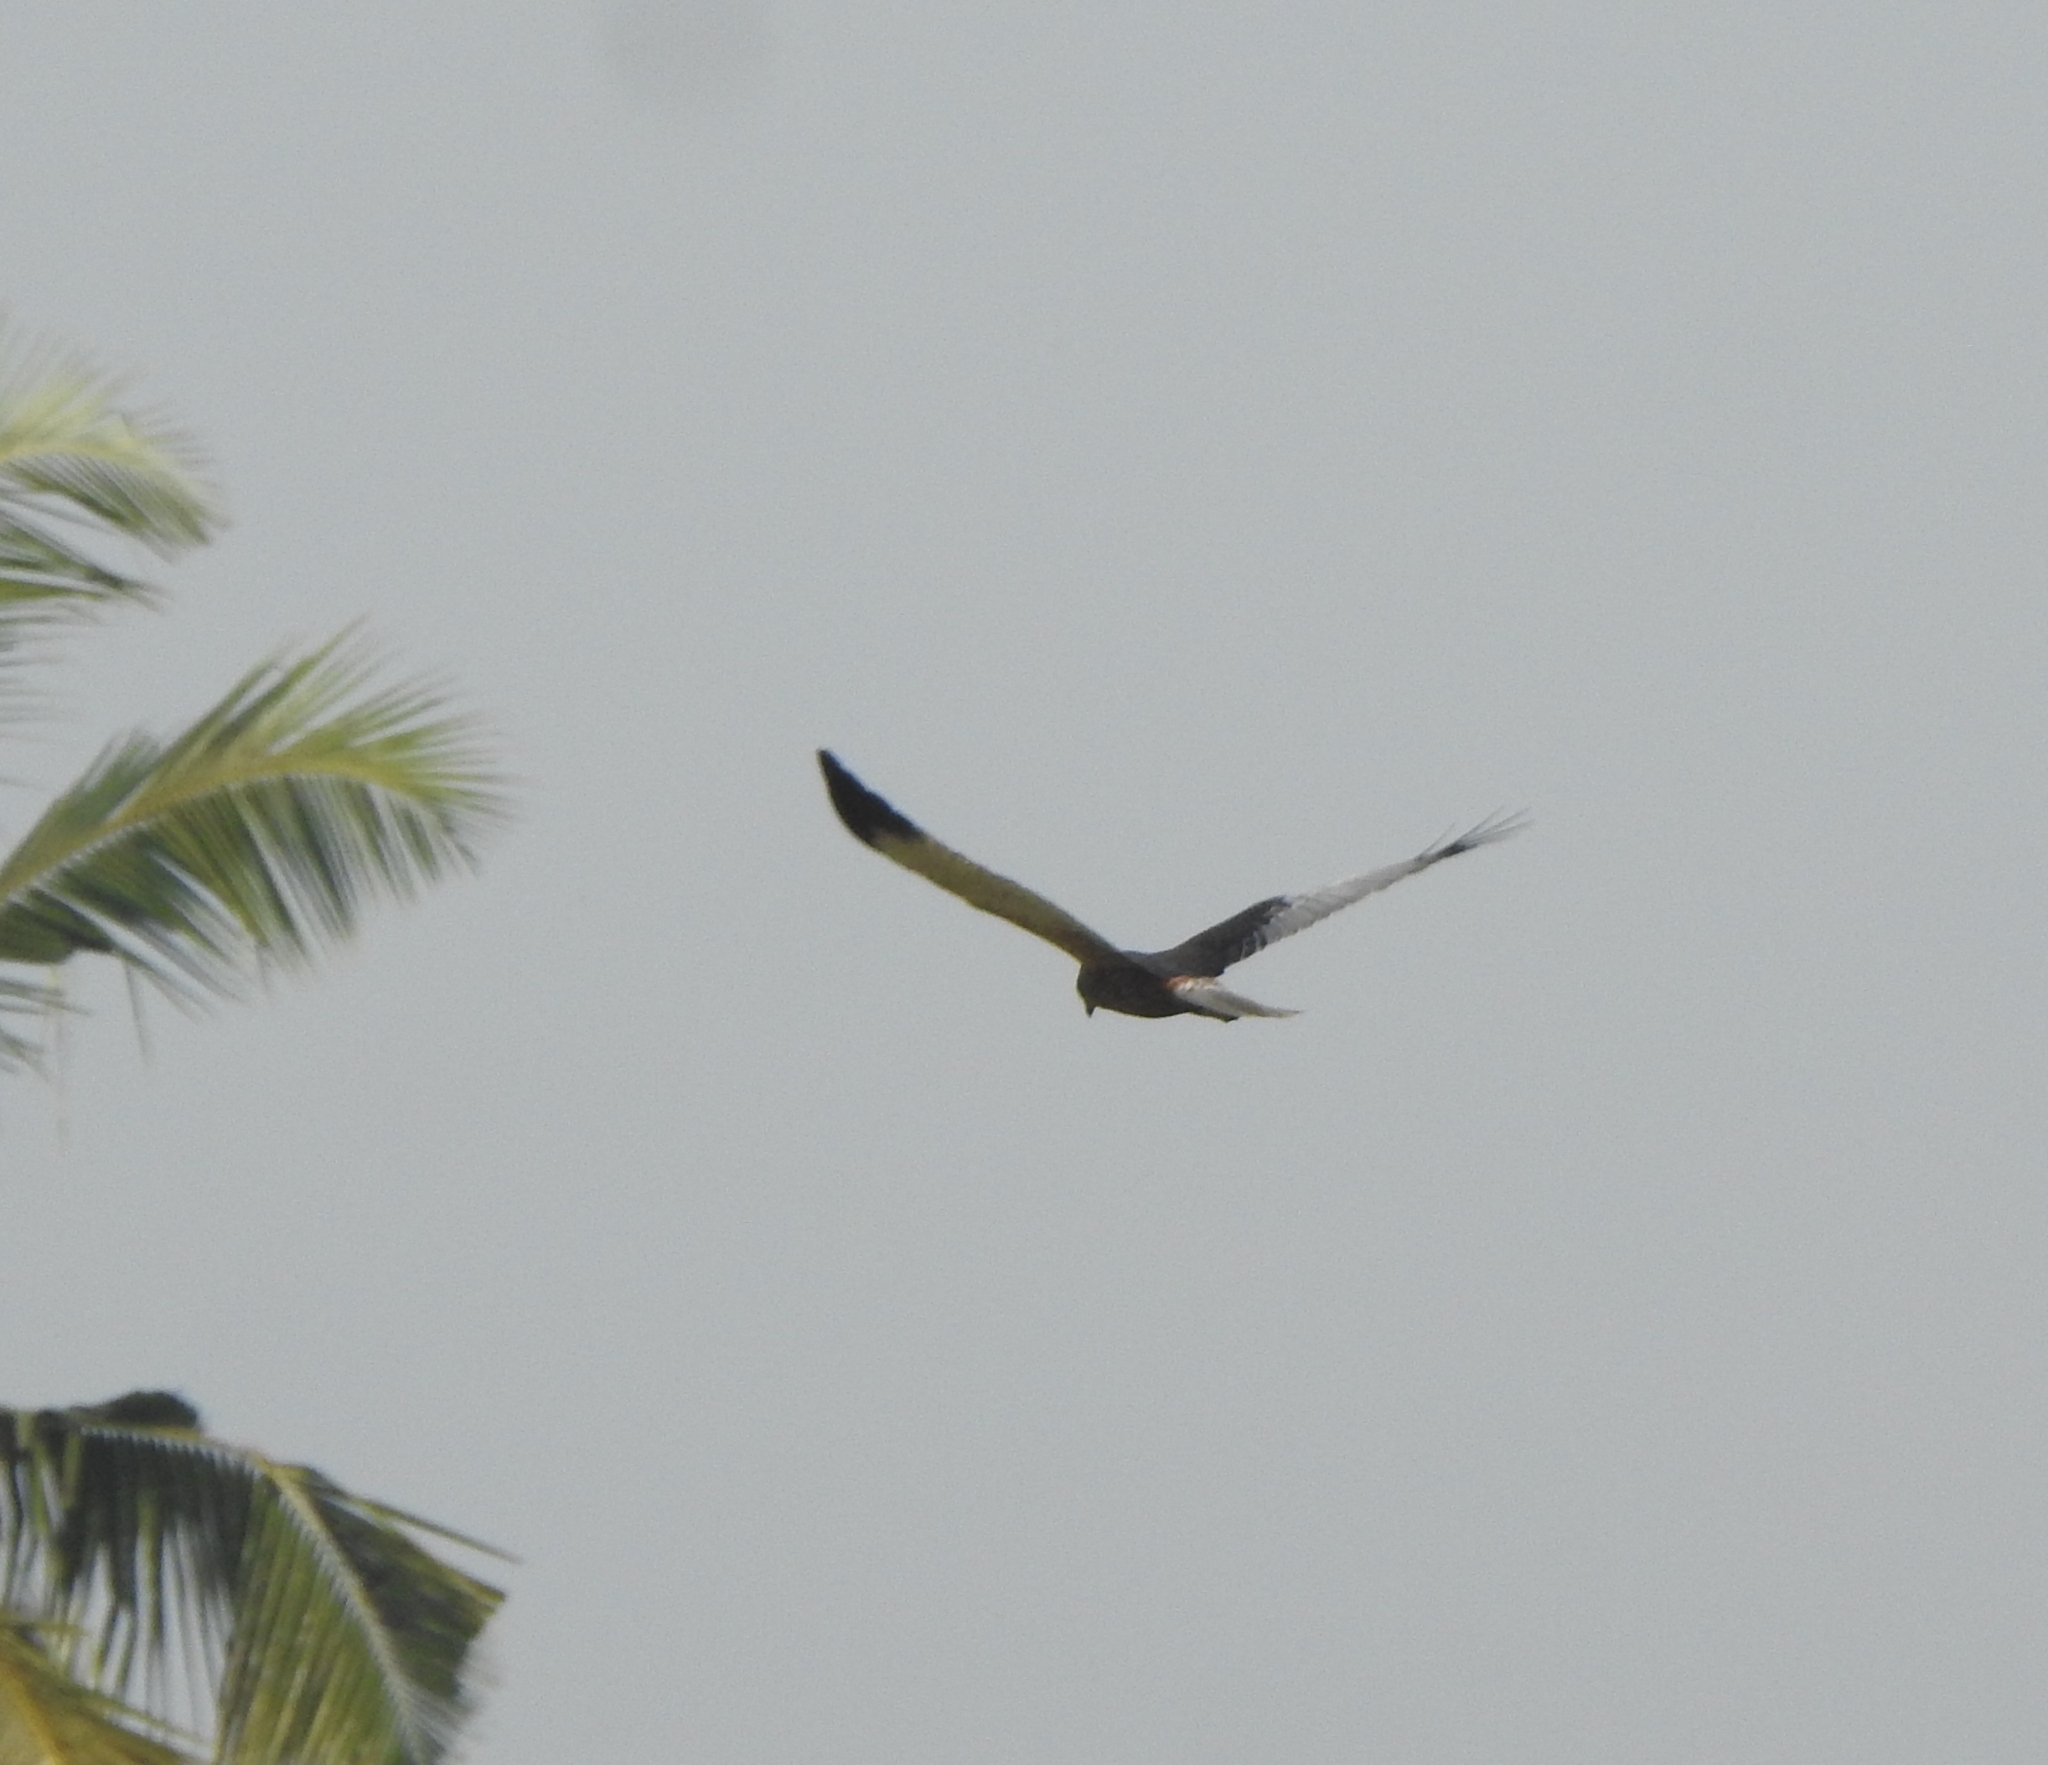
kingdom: Animalia
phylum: Chordata
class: Aves
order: Accipitriformes
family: Accipitridae
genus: Circus
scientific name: Circus aeruginosus
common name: Western marsh harrier
